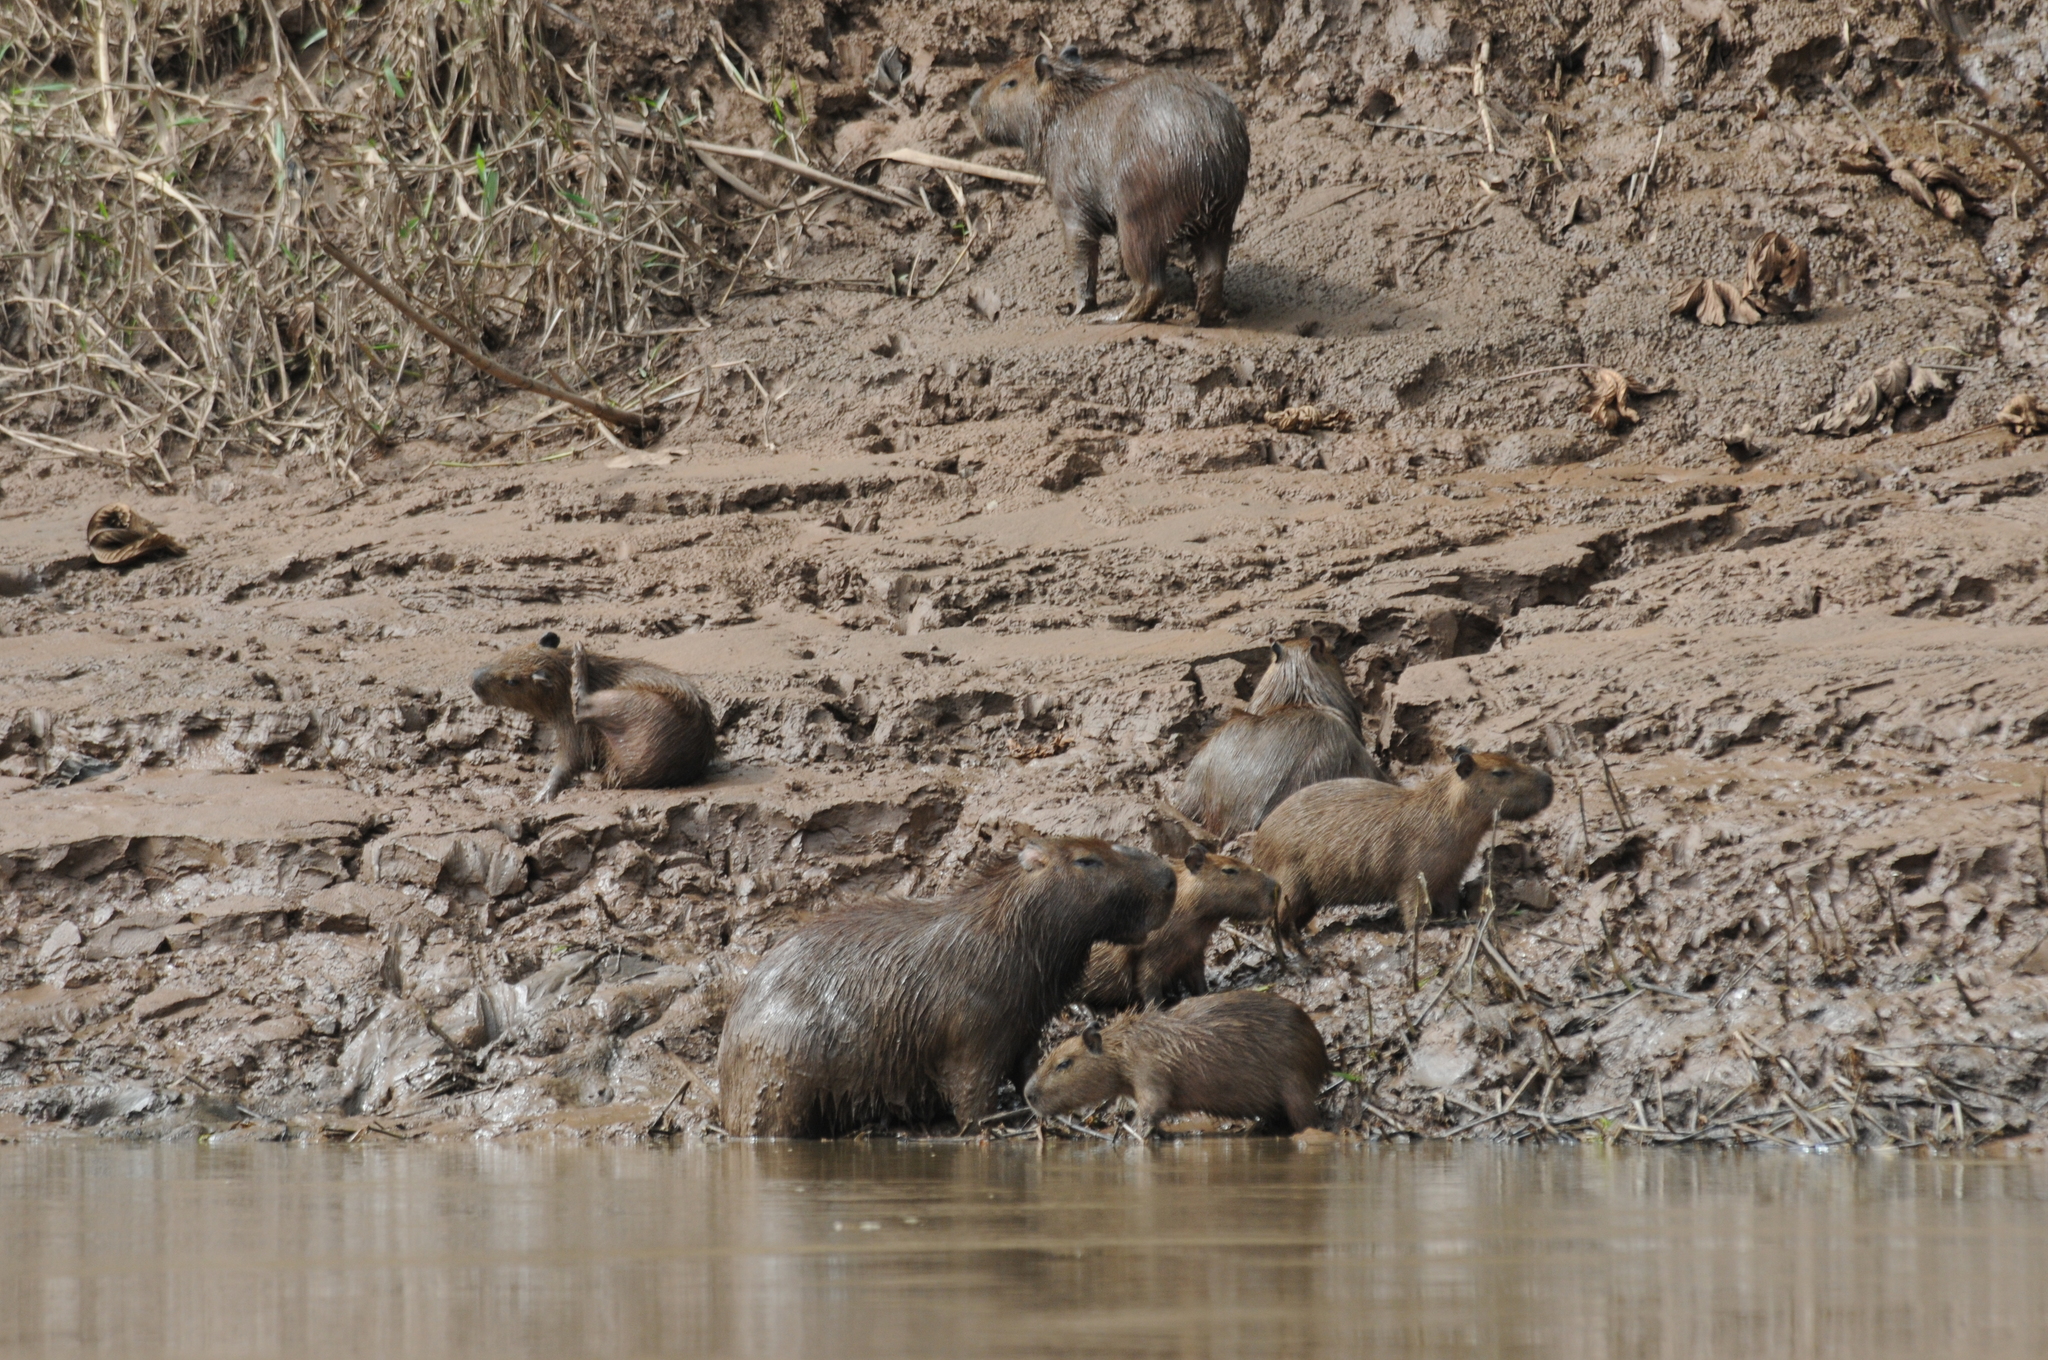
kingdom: Animalia
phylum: Chordata
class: Mammalia
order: Rodentia
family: Caviidae
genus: Hydrochoerus
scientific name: Hydrochoerus hydrochaeris
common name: Capybara
